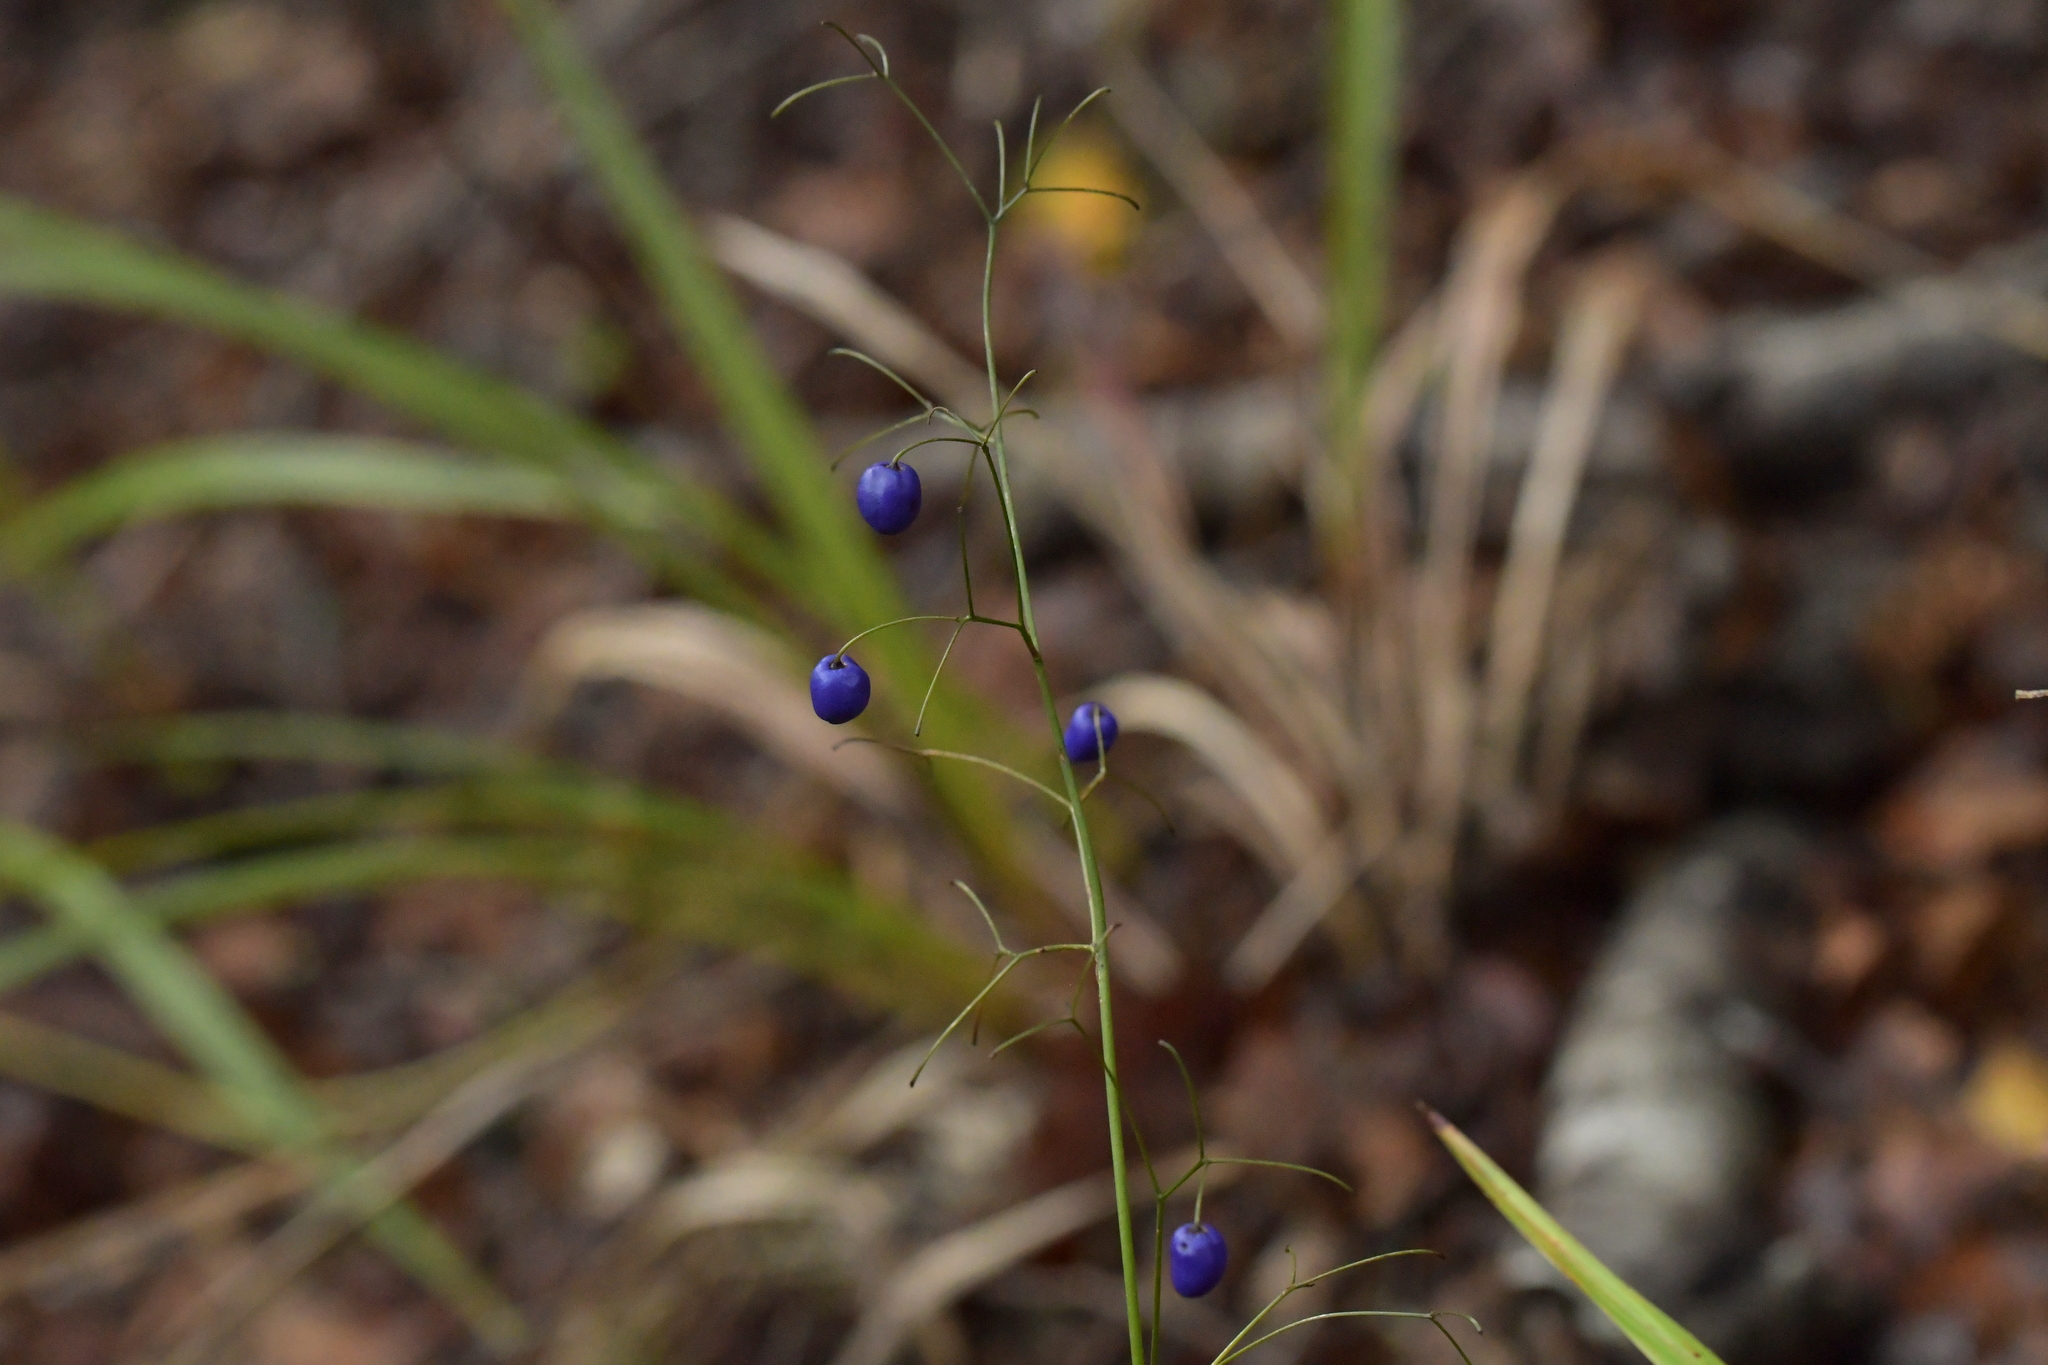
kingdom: Plantae
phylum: Tracheophyta
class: Liliopsida
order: Asparagales
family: Asphodelaceae
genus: Dianella
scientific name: Dianella nigra
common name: New zealand-blueberry
